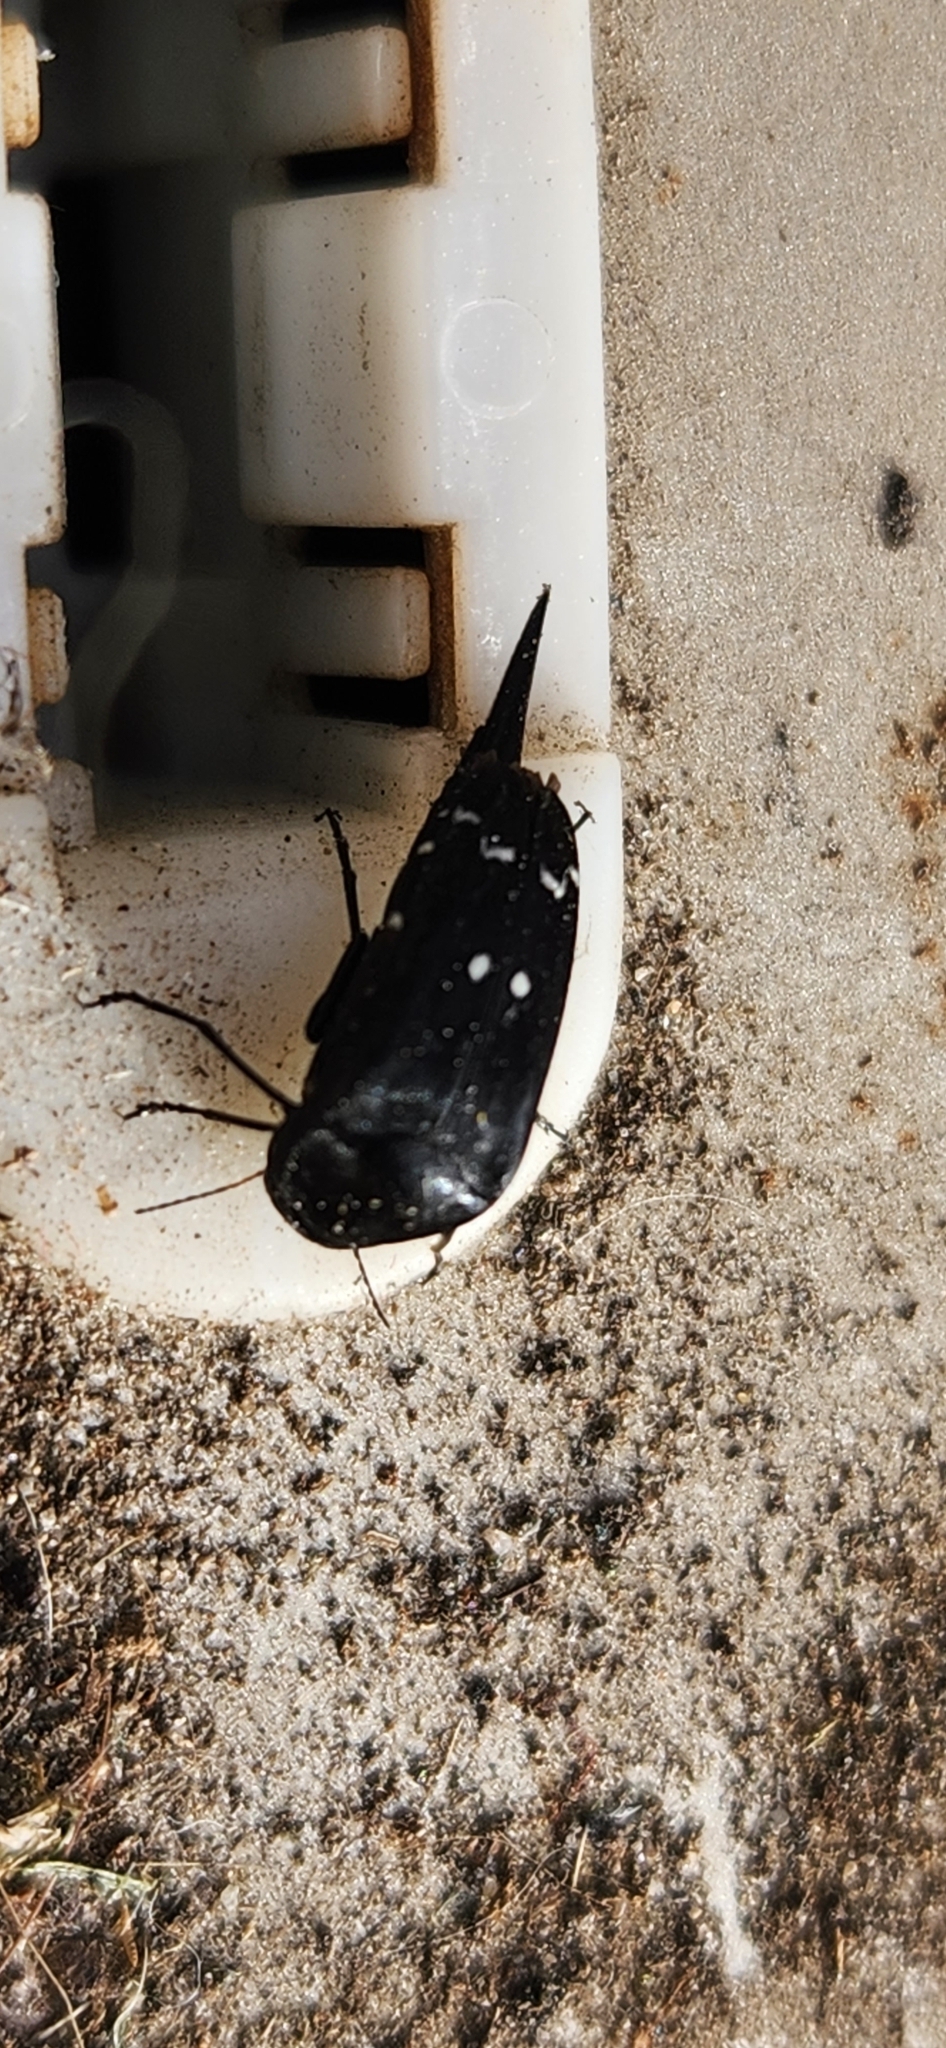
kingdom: Animalia
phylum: Arthropoda
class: Insecta
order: Coleoptera
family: Mordellidae
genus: Hoshihananomia
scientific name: Hoshihananomia
